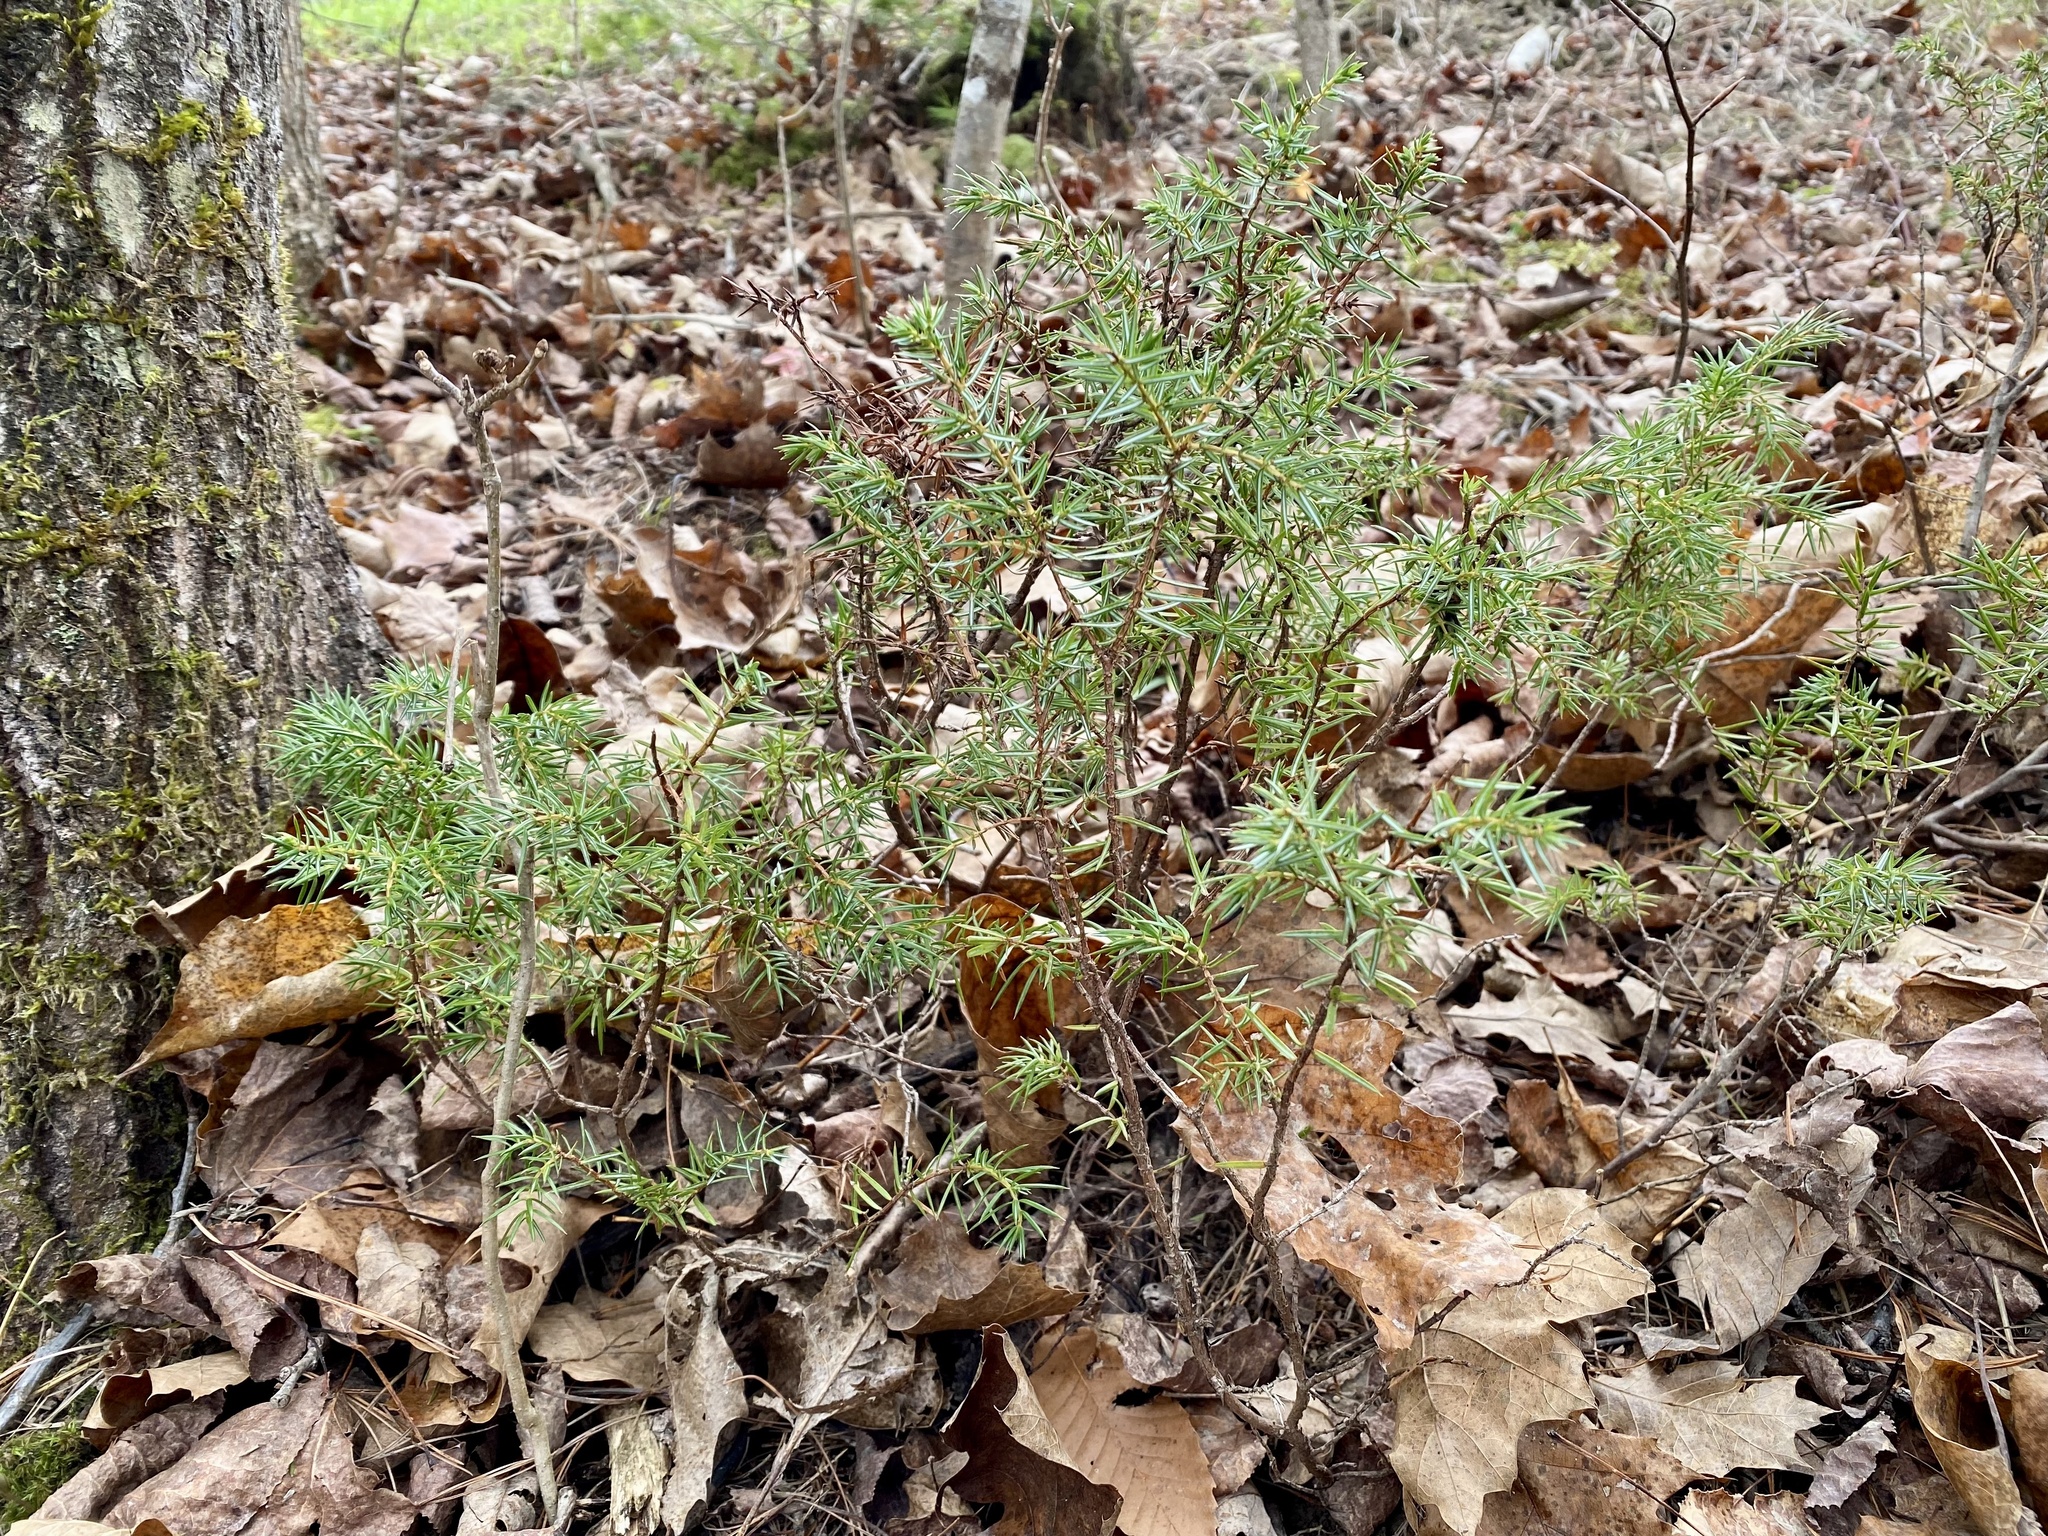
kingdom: Plantae
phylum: Tracheophyta
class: Pinopsida
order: Pinales
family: Cupressaceae
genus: Juniperus
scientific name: Juniperus communis
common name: Common juniper
